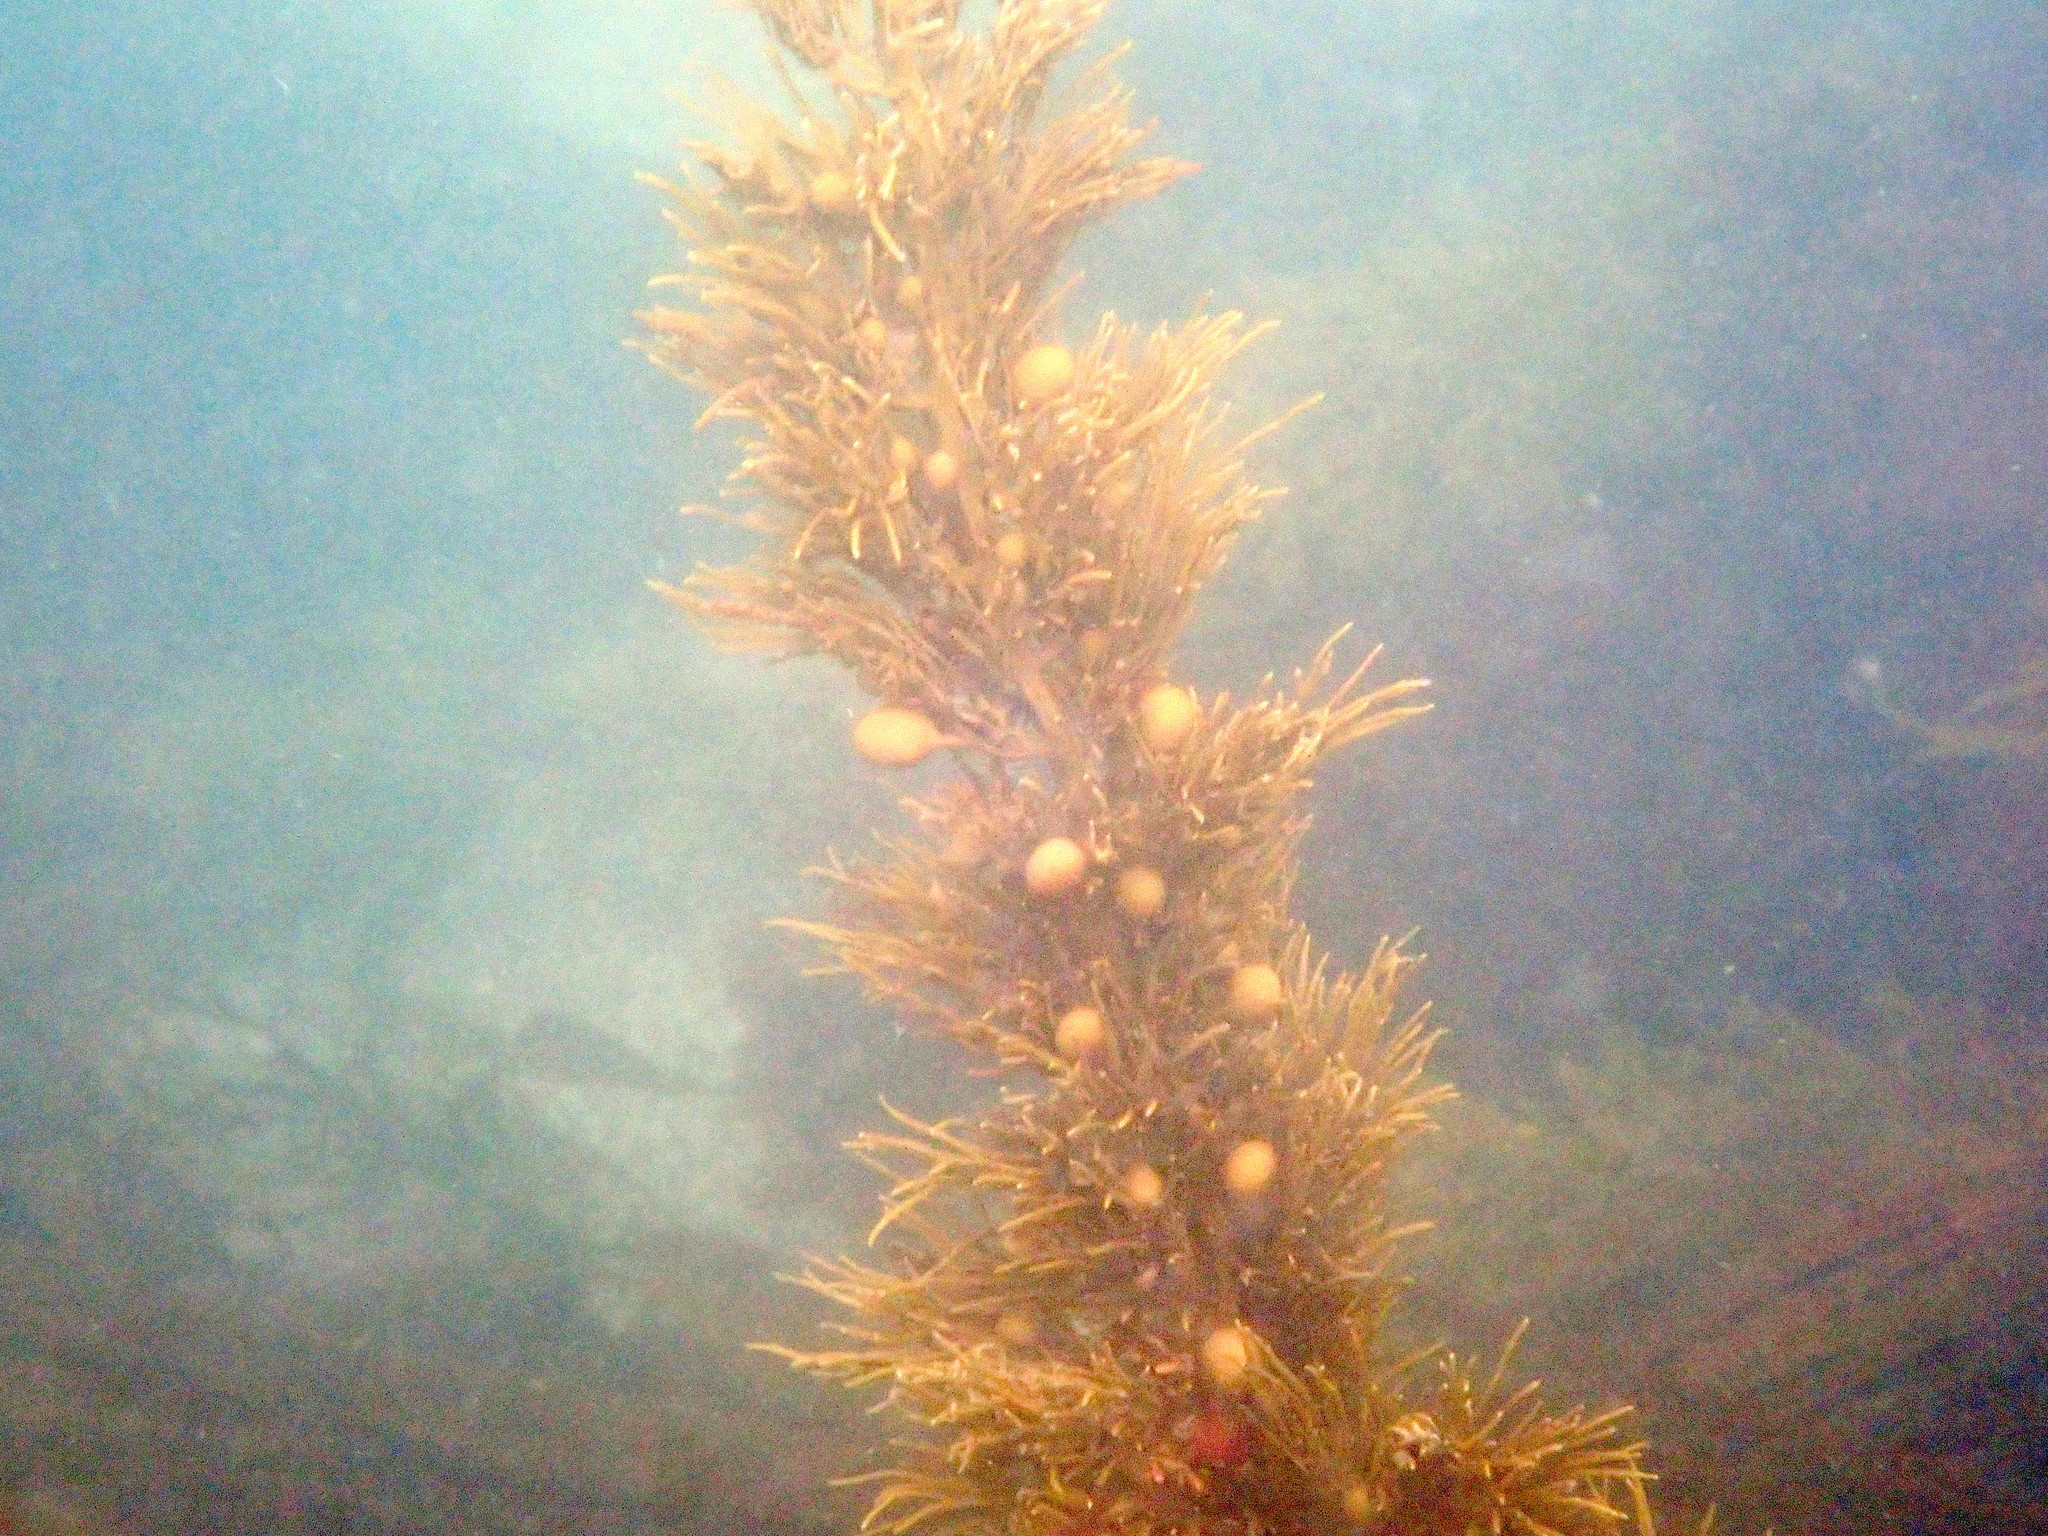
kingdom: Chromista
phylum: Ochrophyta
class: Phaeophyceae
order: Fucales
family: Sargassaceae
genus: Cystophora
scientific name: Cystophora retroflexa
